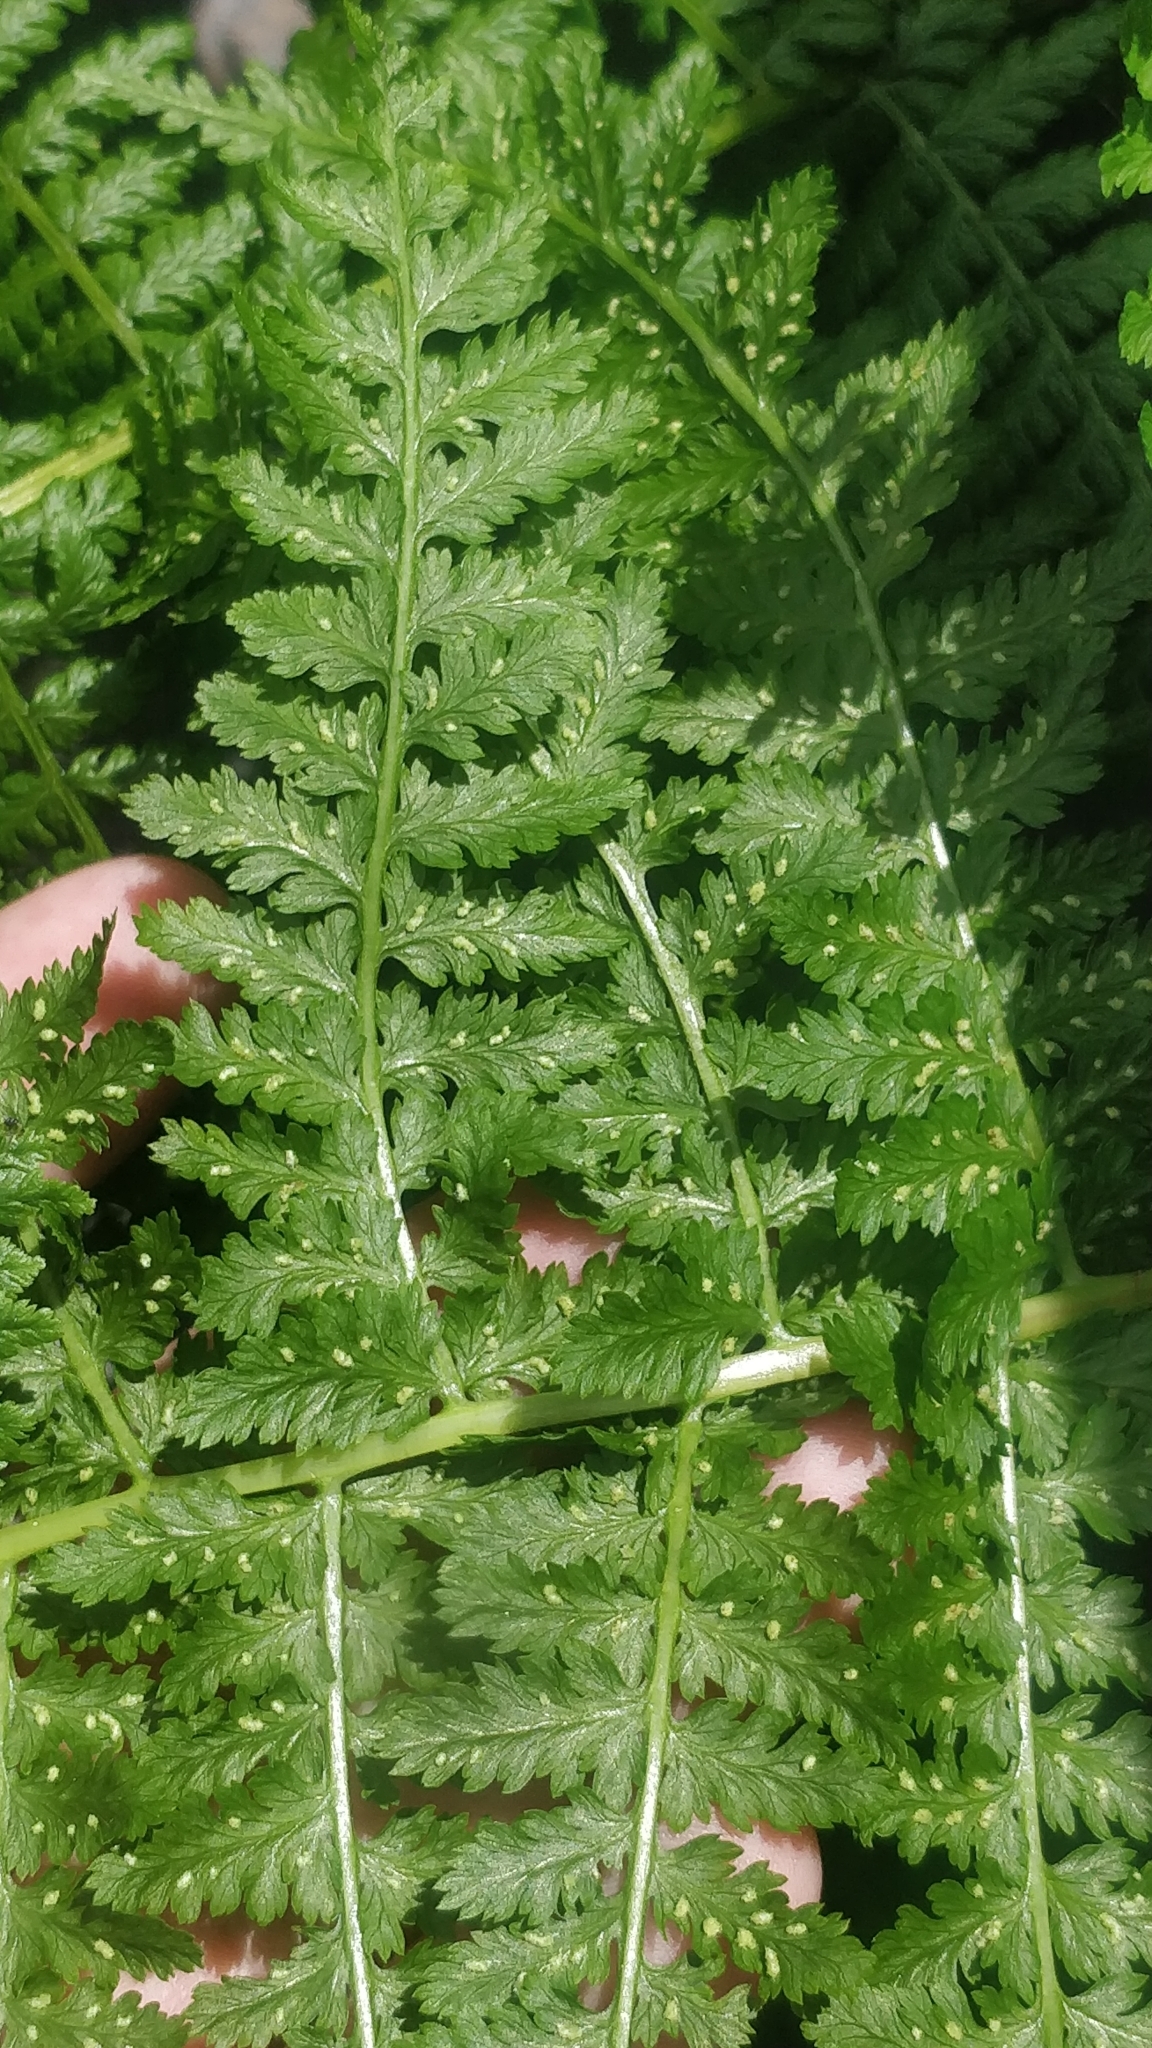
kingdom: Plantae
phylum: Tracheophyta
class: Polypodiopsida
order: Polypodiales
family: Athyriaceae
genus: Athyrium
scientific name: Athyrium filix-femina
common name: Lady fern
